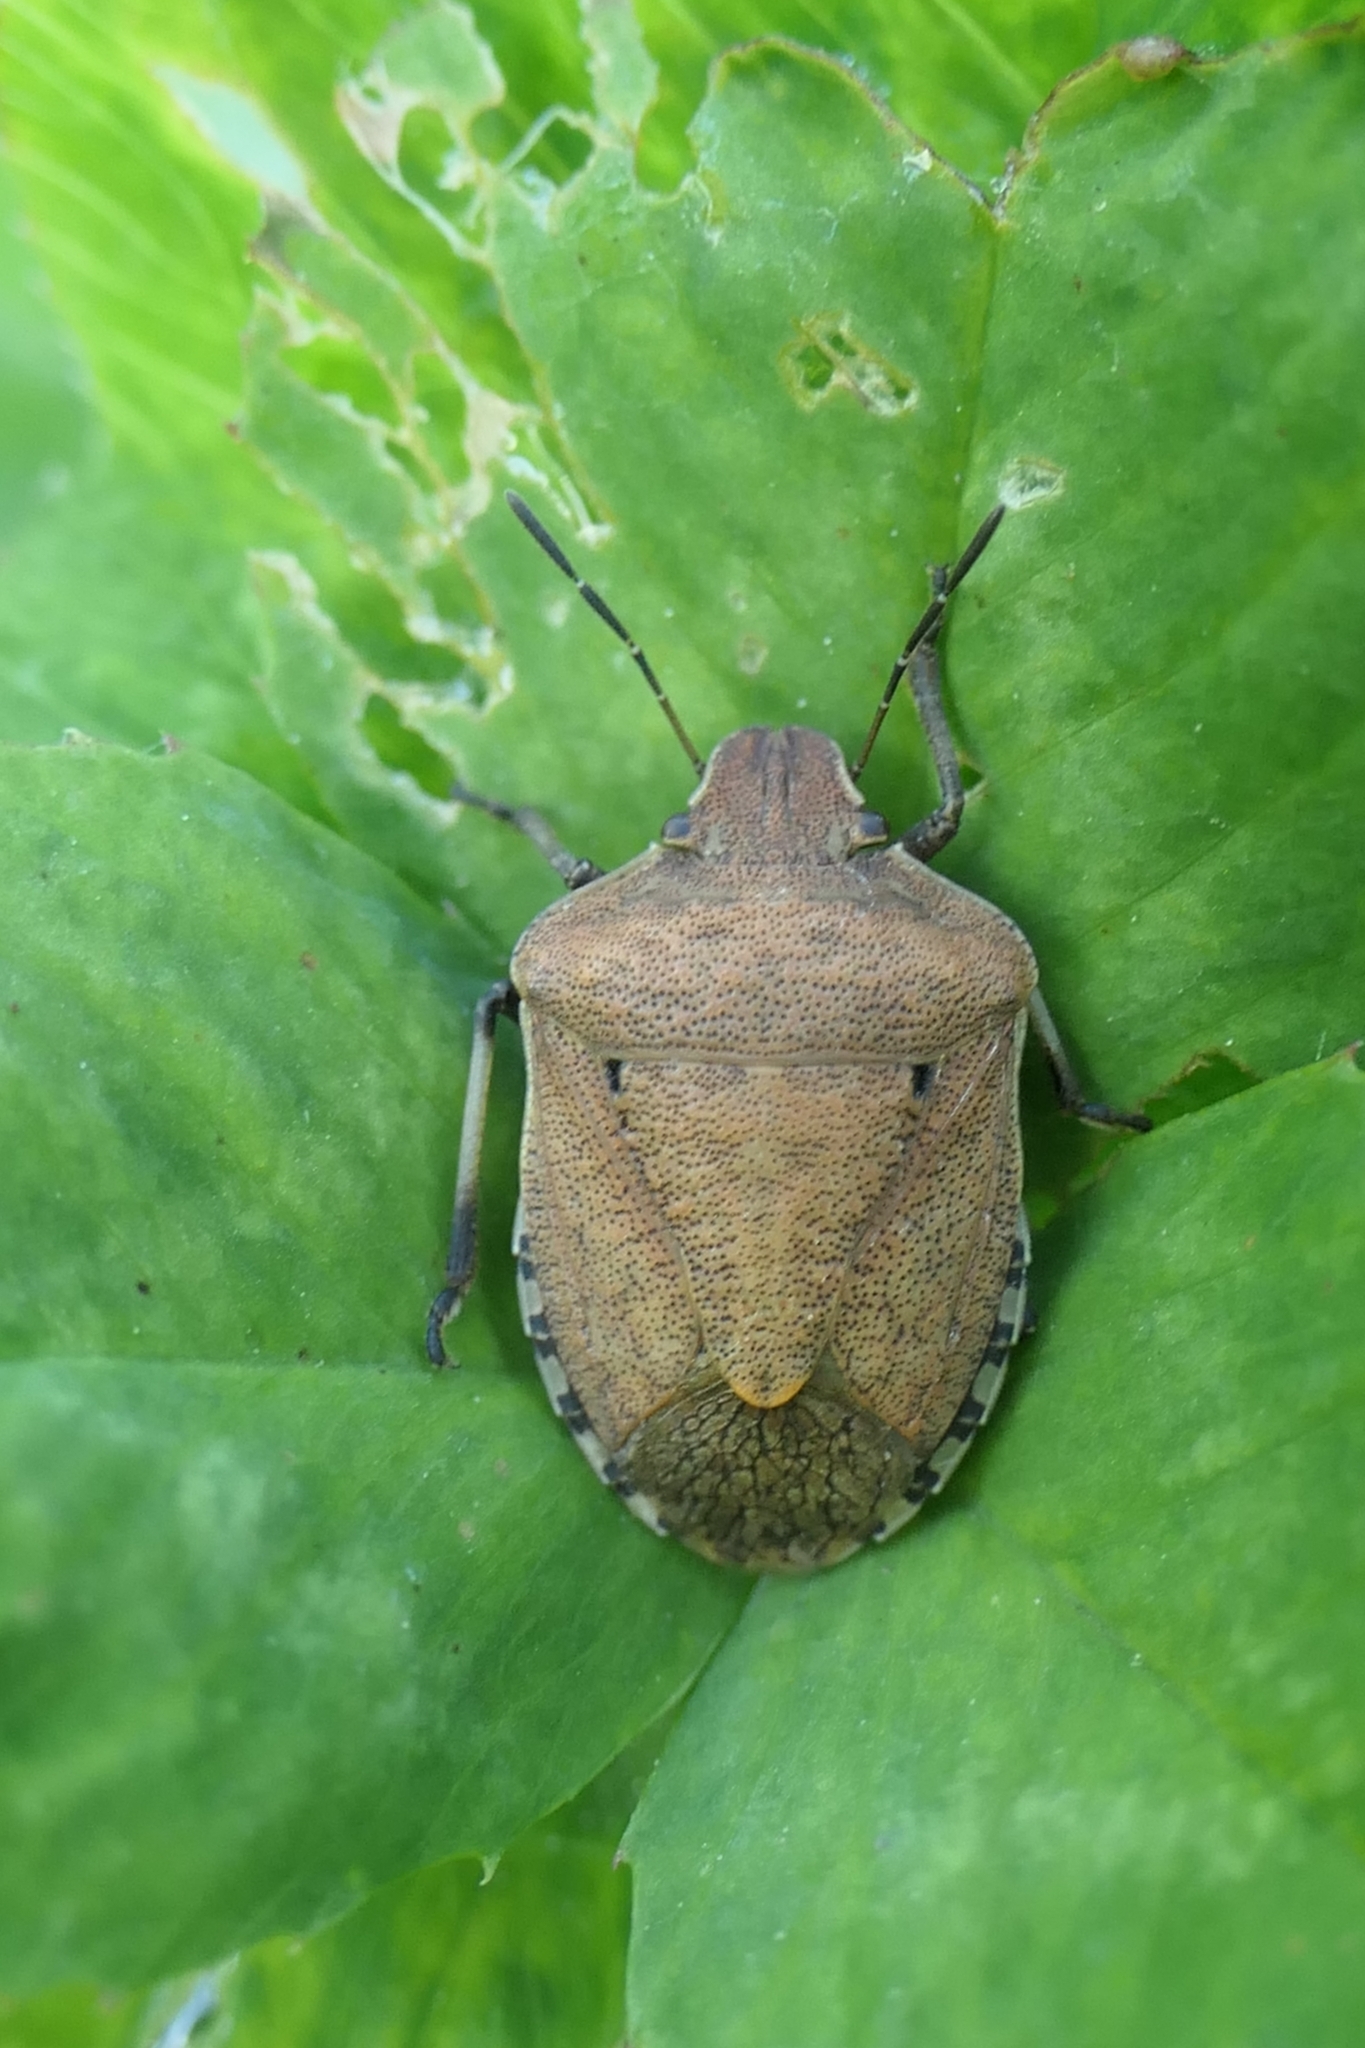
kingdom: Animalia
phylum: Arthropoda
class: Insecta
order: Hemiptera
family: Pentatomidae
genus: Dictyotus
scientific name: Dictyotus caenosus
